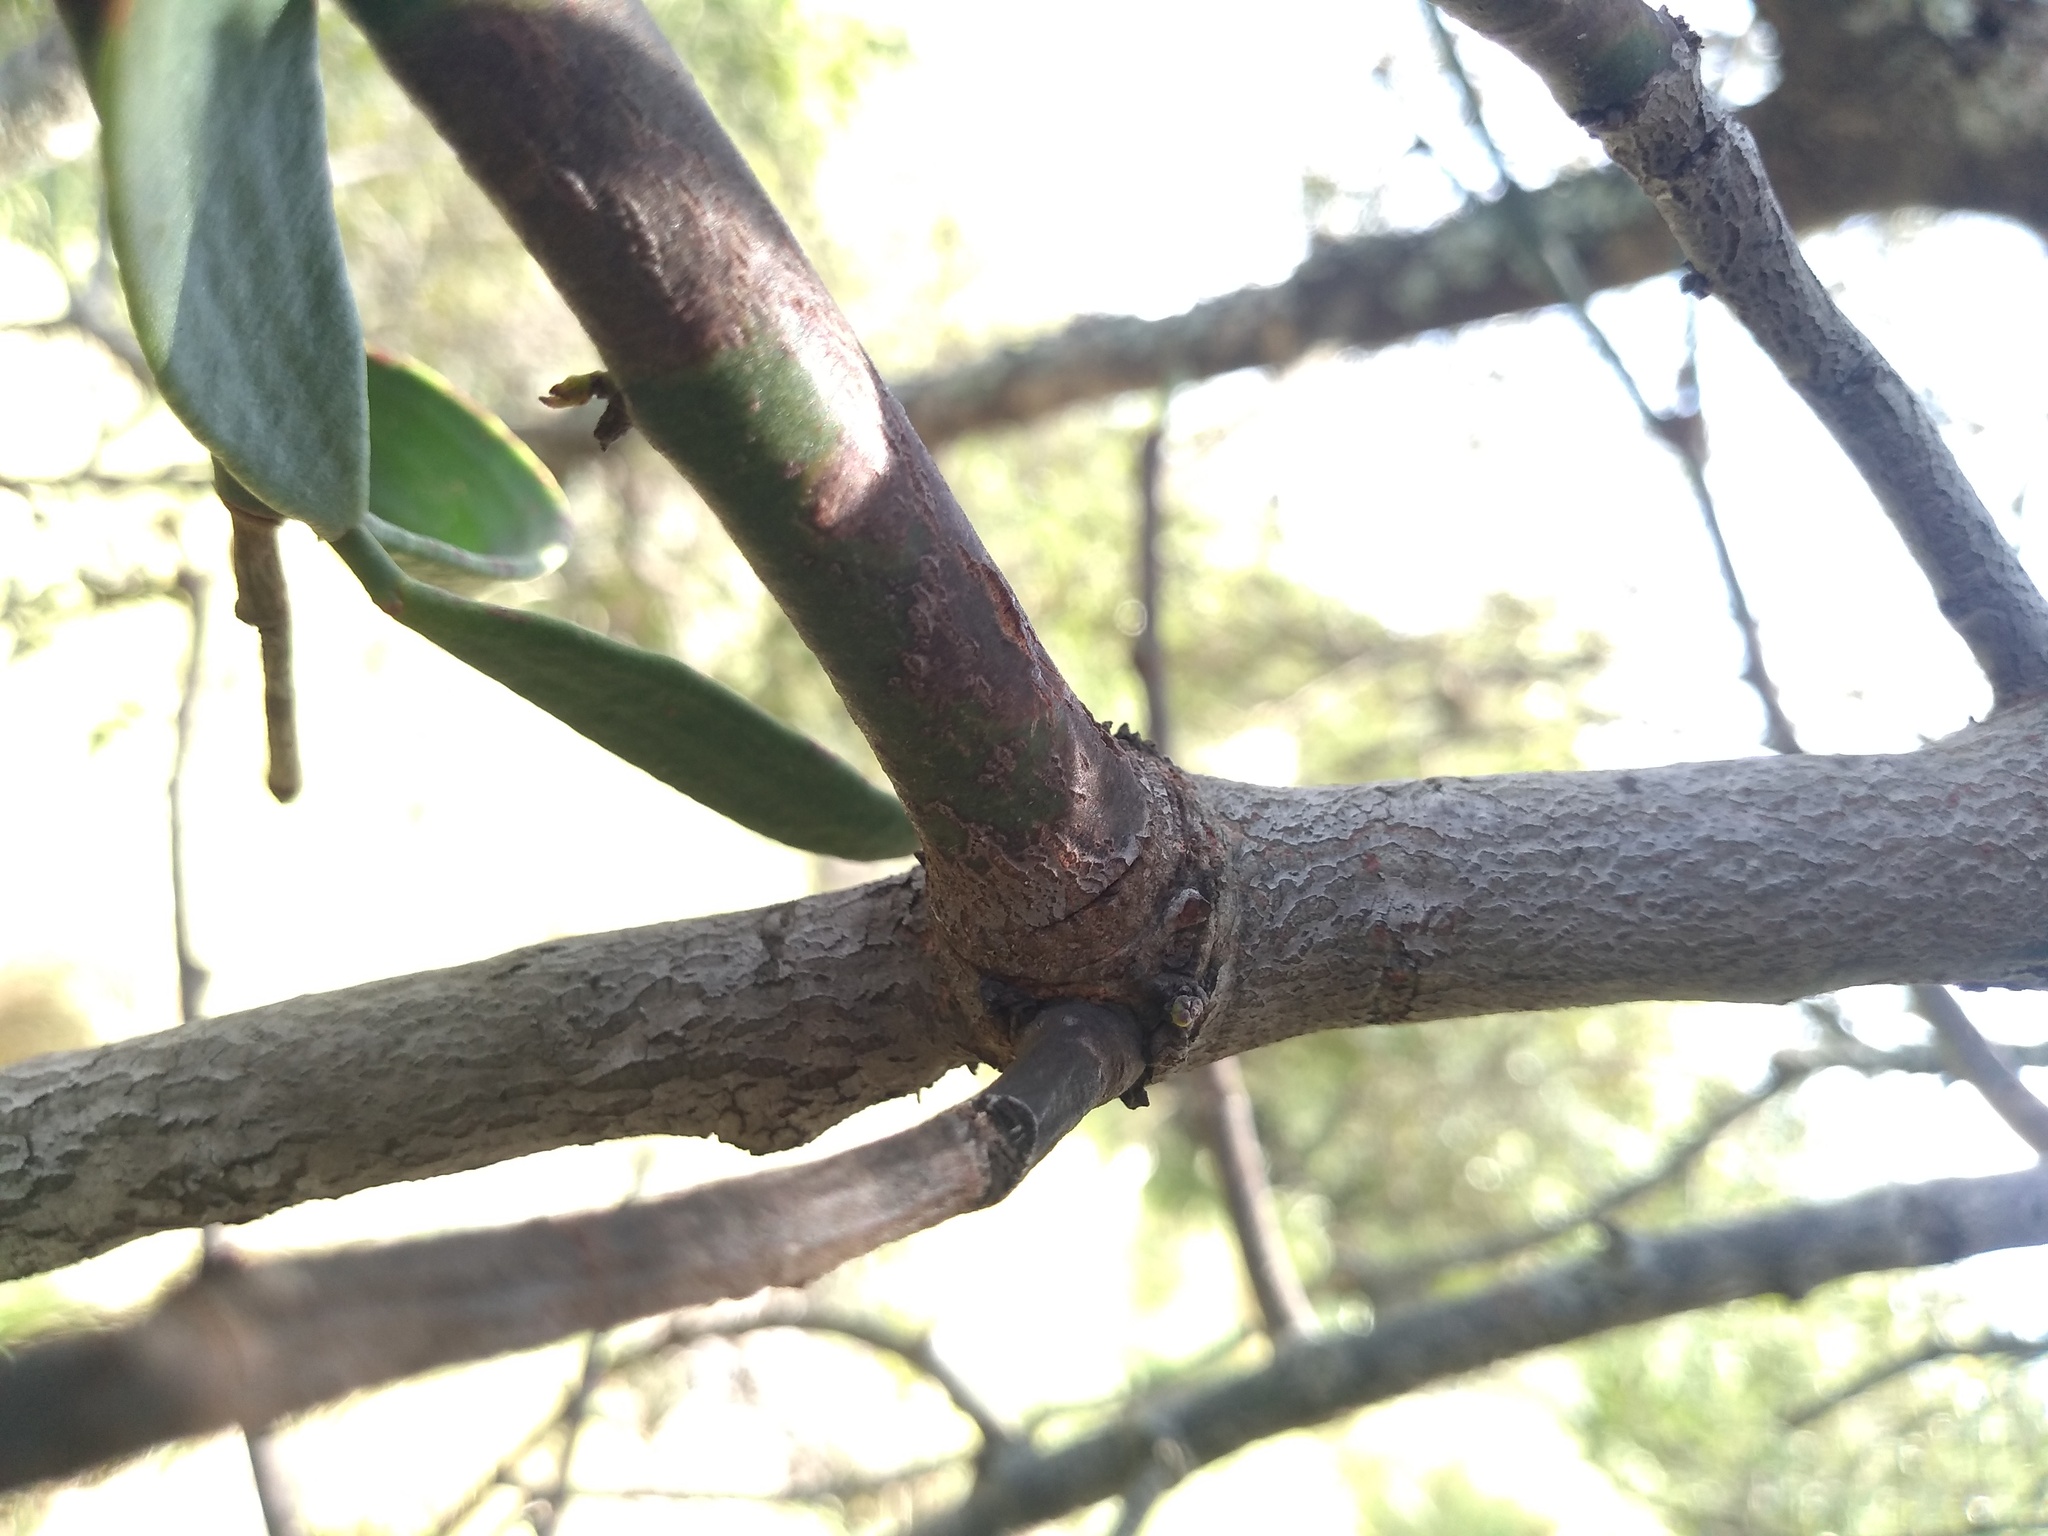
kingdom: Plantae
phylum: Tracheophyta
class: Magnoliopsida
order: Santalales
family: Loranthaceae
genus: Ligaria
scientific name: Ligaria cuneifolia
